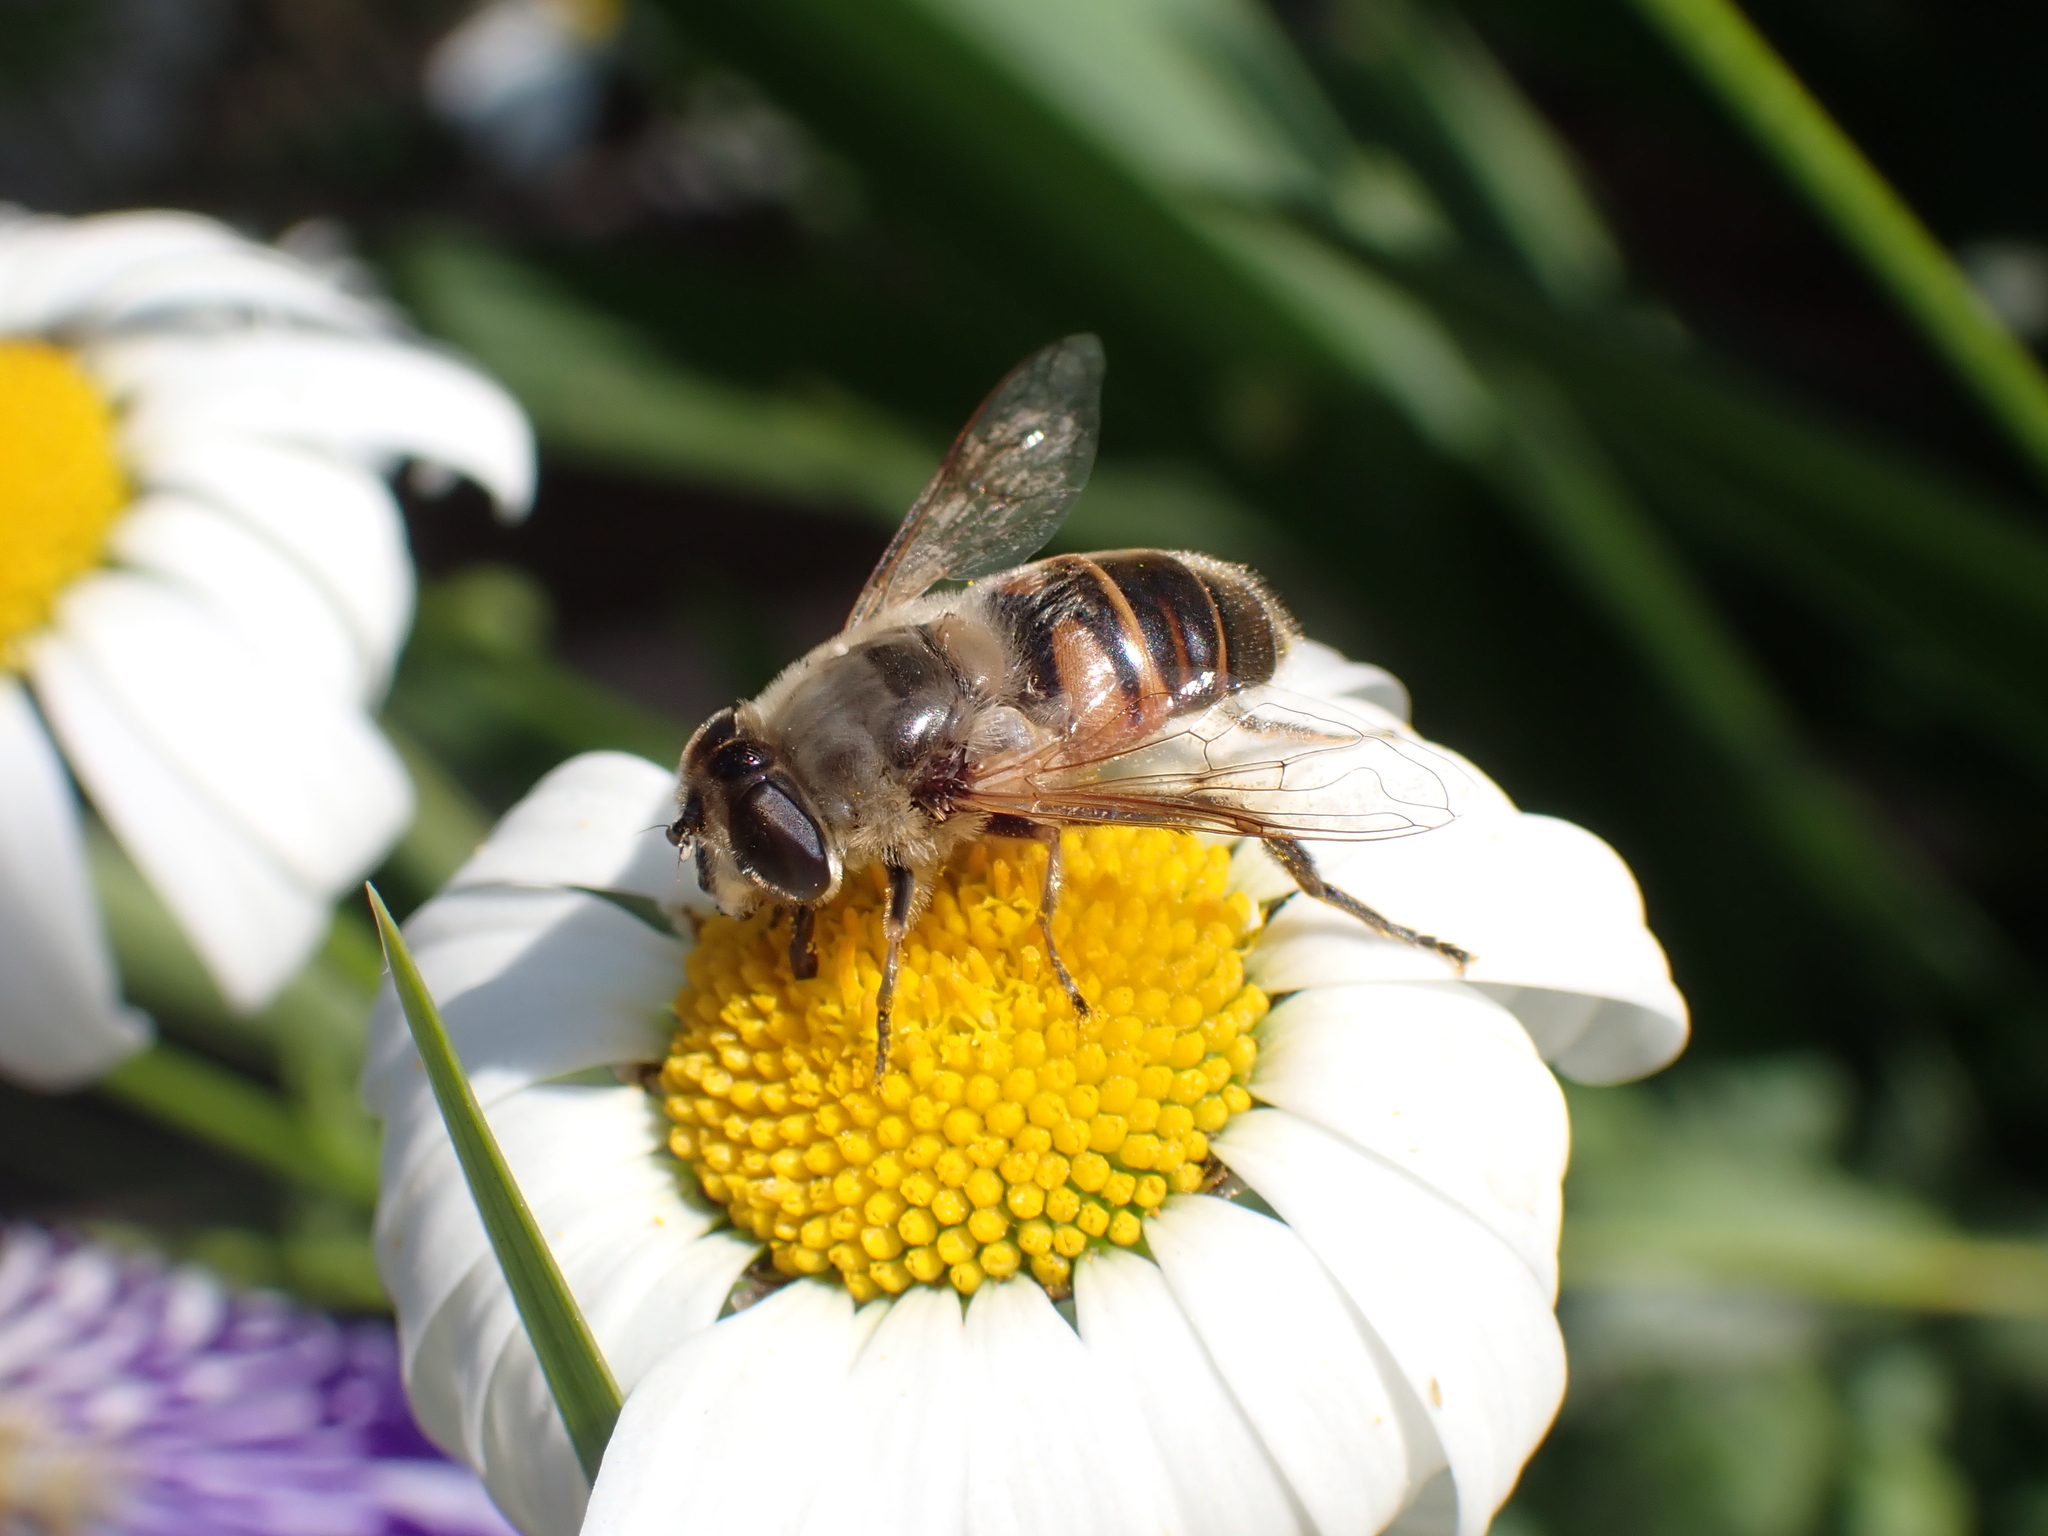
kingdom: Animalia
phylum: Arthropoda
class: Insecta
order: Diptera
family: Syrphidae
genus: Eristalis
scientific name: Eristalis tenax
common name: Drone fly
